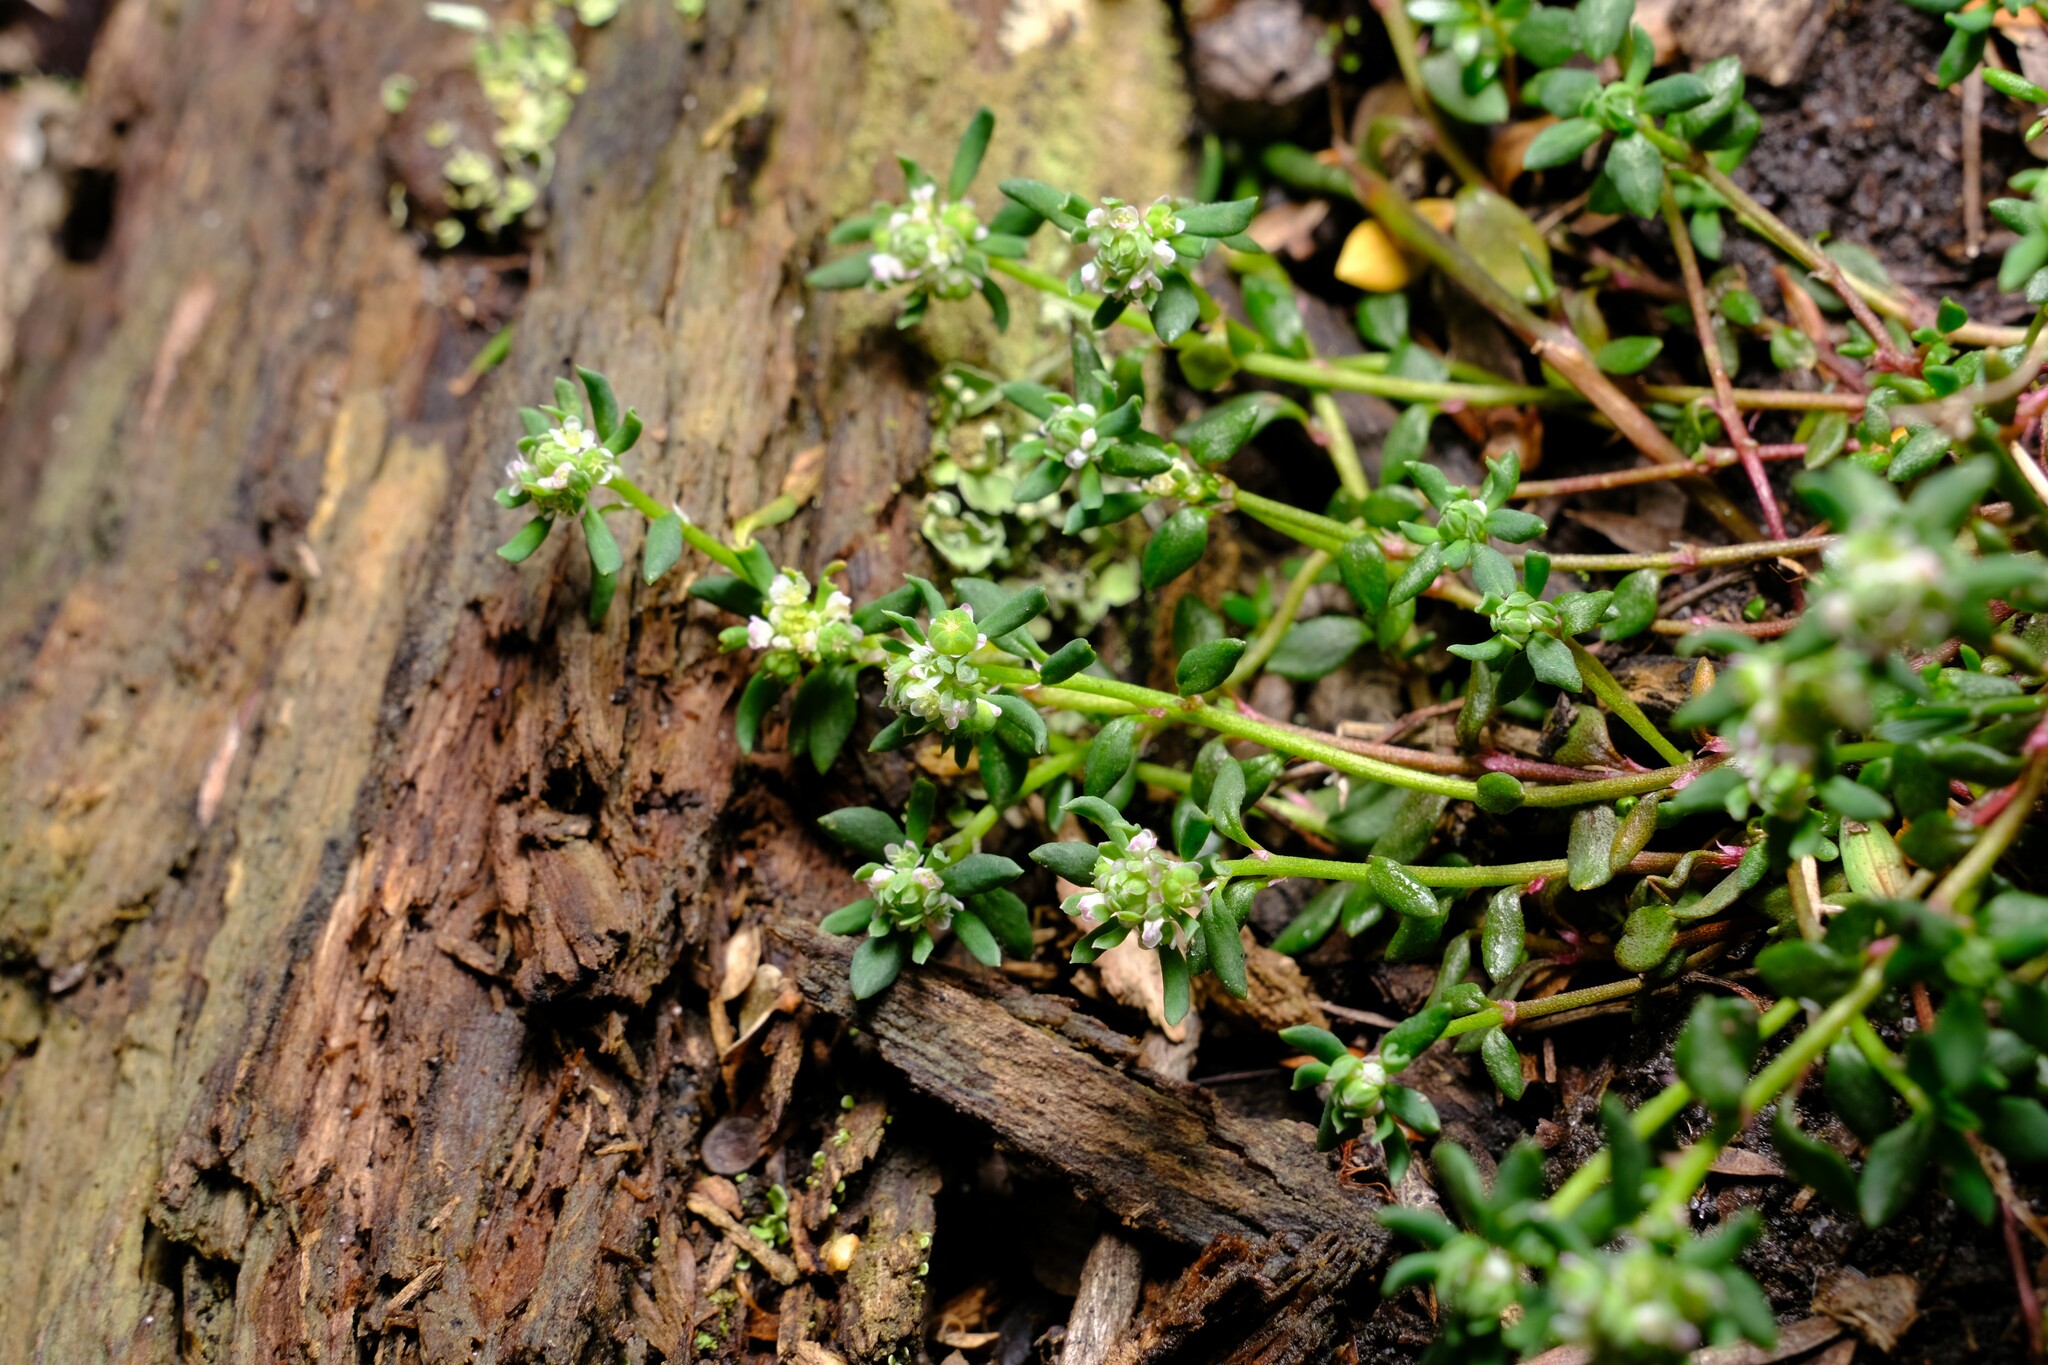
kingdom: Plantae
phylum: Tracheophyta
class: Magnoliopsida
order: Malpighiales
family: Phyllanthaceae
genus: Poranthera
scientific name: Poranthera microphylla
